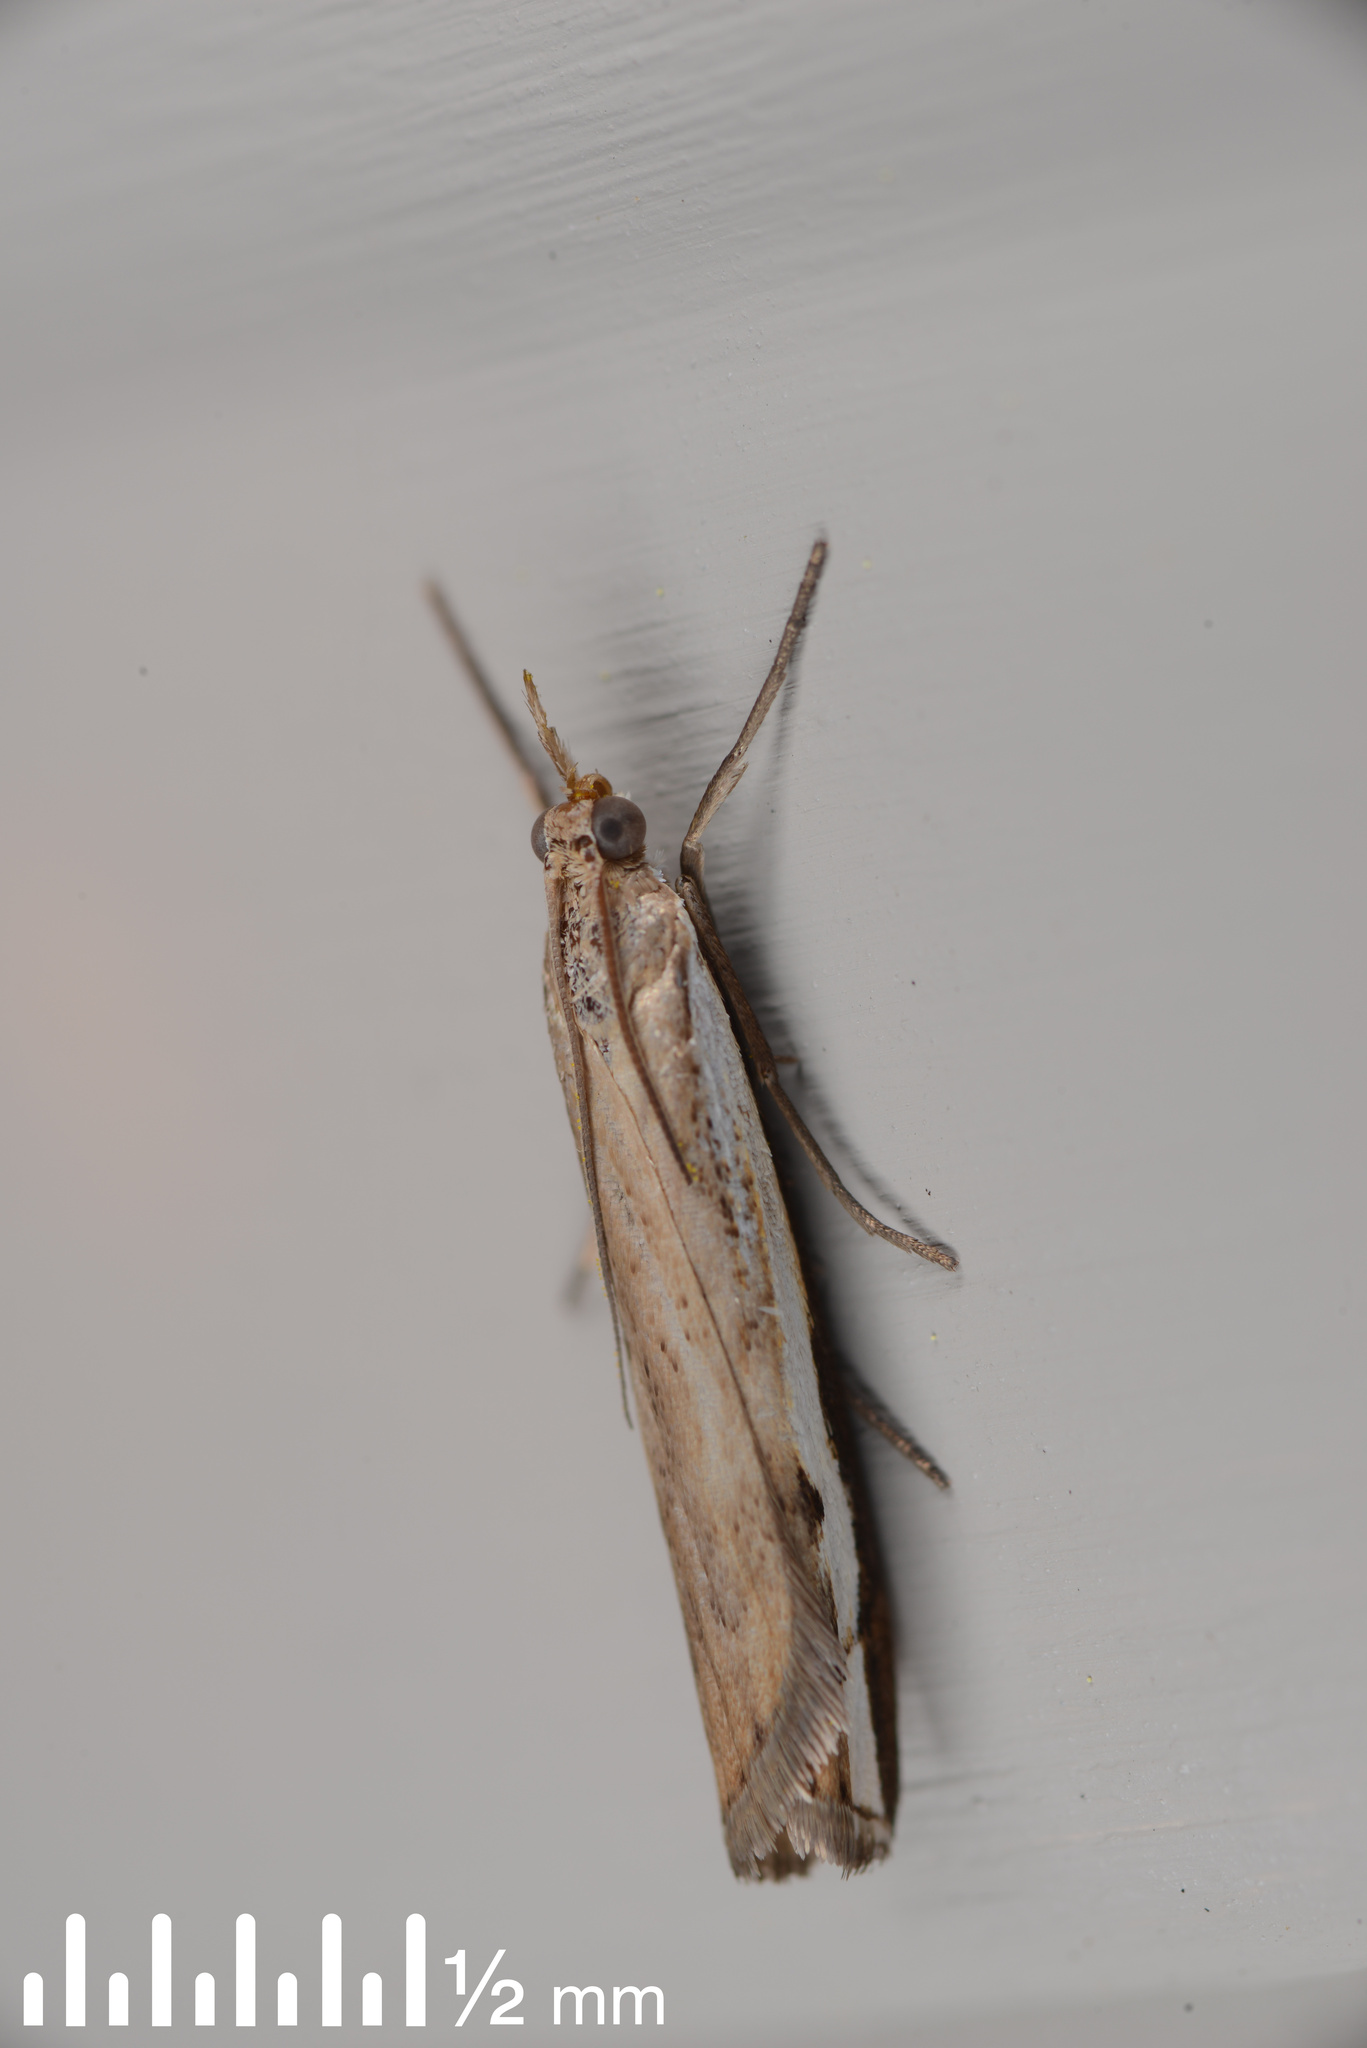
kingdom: Animalia
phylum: Arthropoda
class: Insecta
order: Lepidoptera
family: Crambidae
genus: Orocrambus
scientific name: Orocrambus flexuosellus
